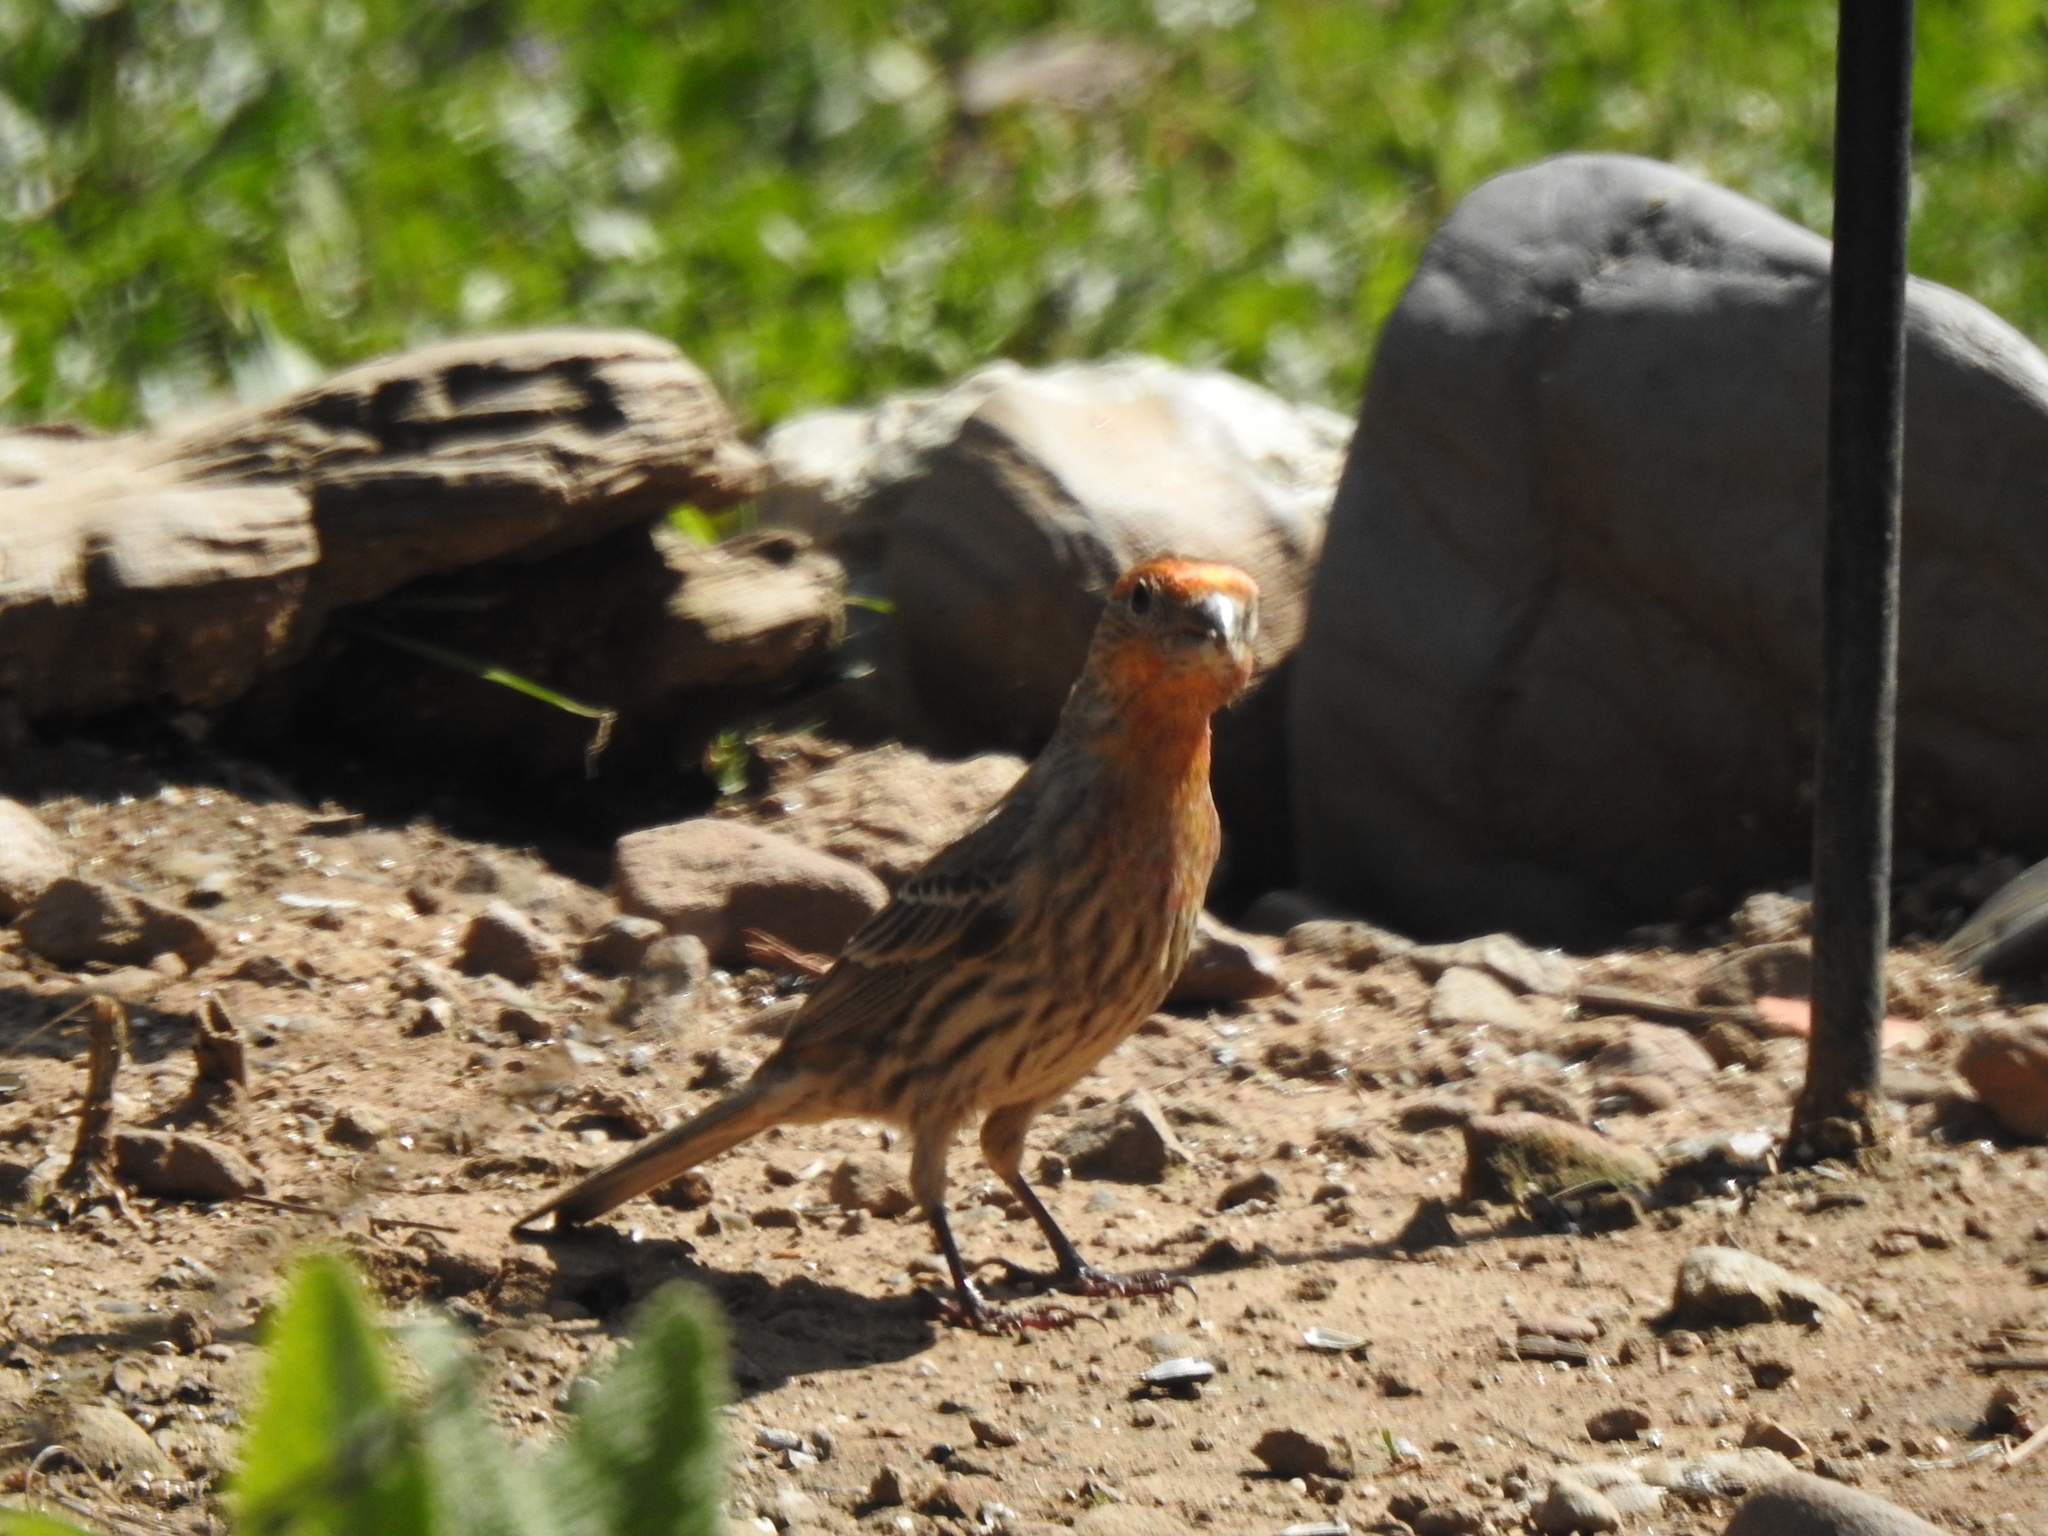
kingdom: Animalia
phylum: Chordata
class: Aves
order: Passeriformes
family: Fringillidae
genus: Haemorhous
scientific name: Haemorhous mexicanus
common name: House finch
